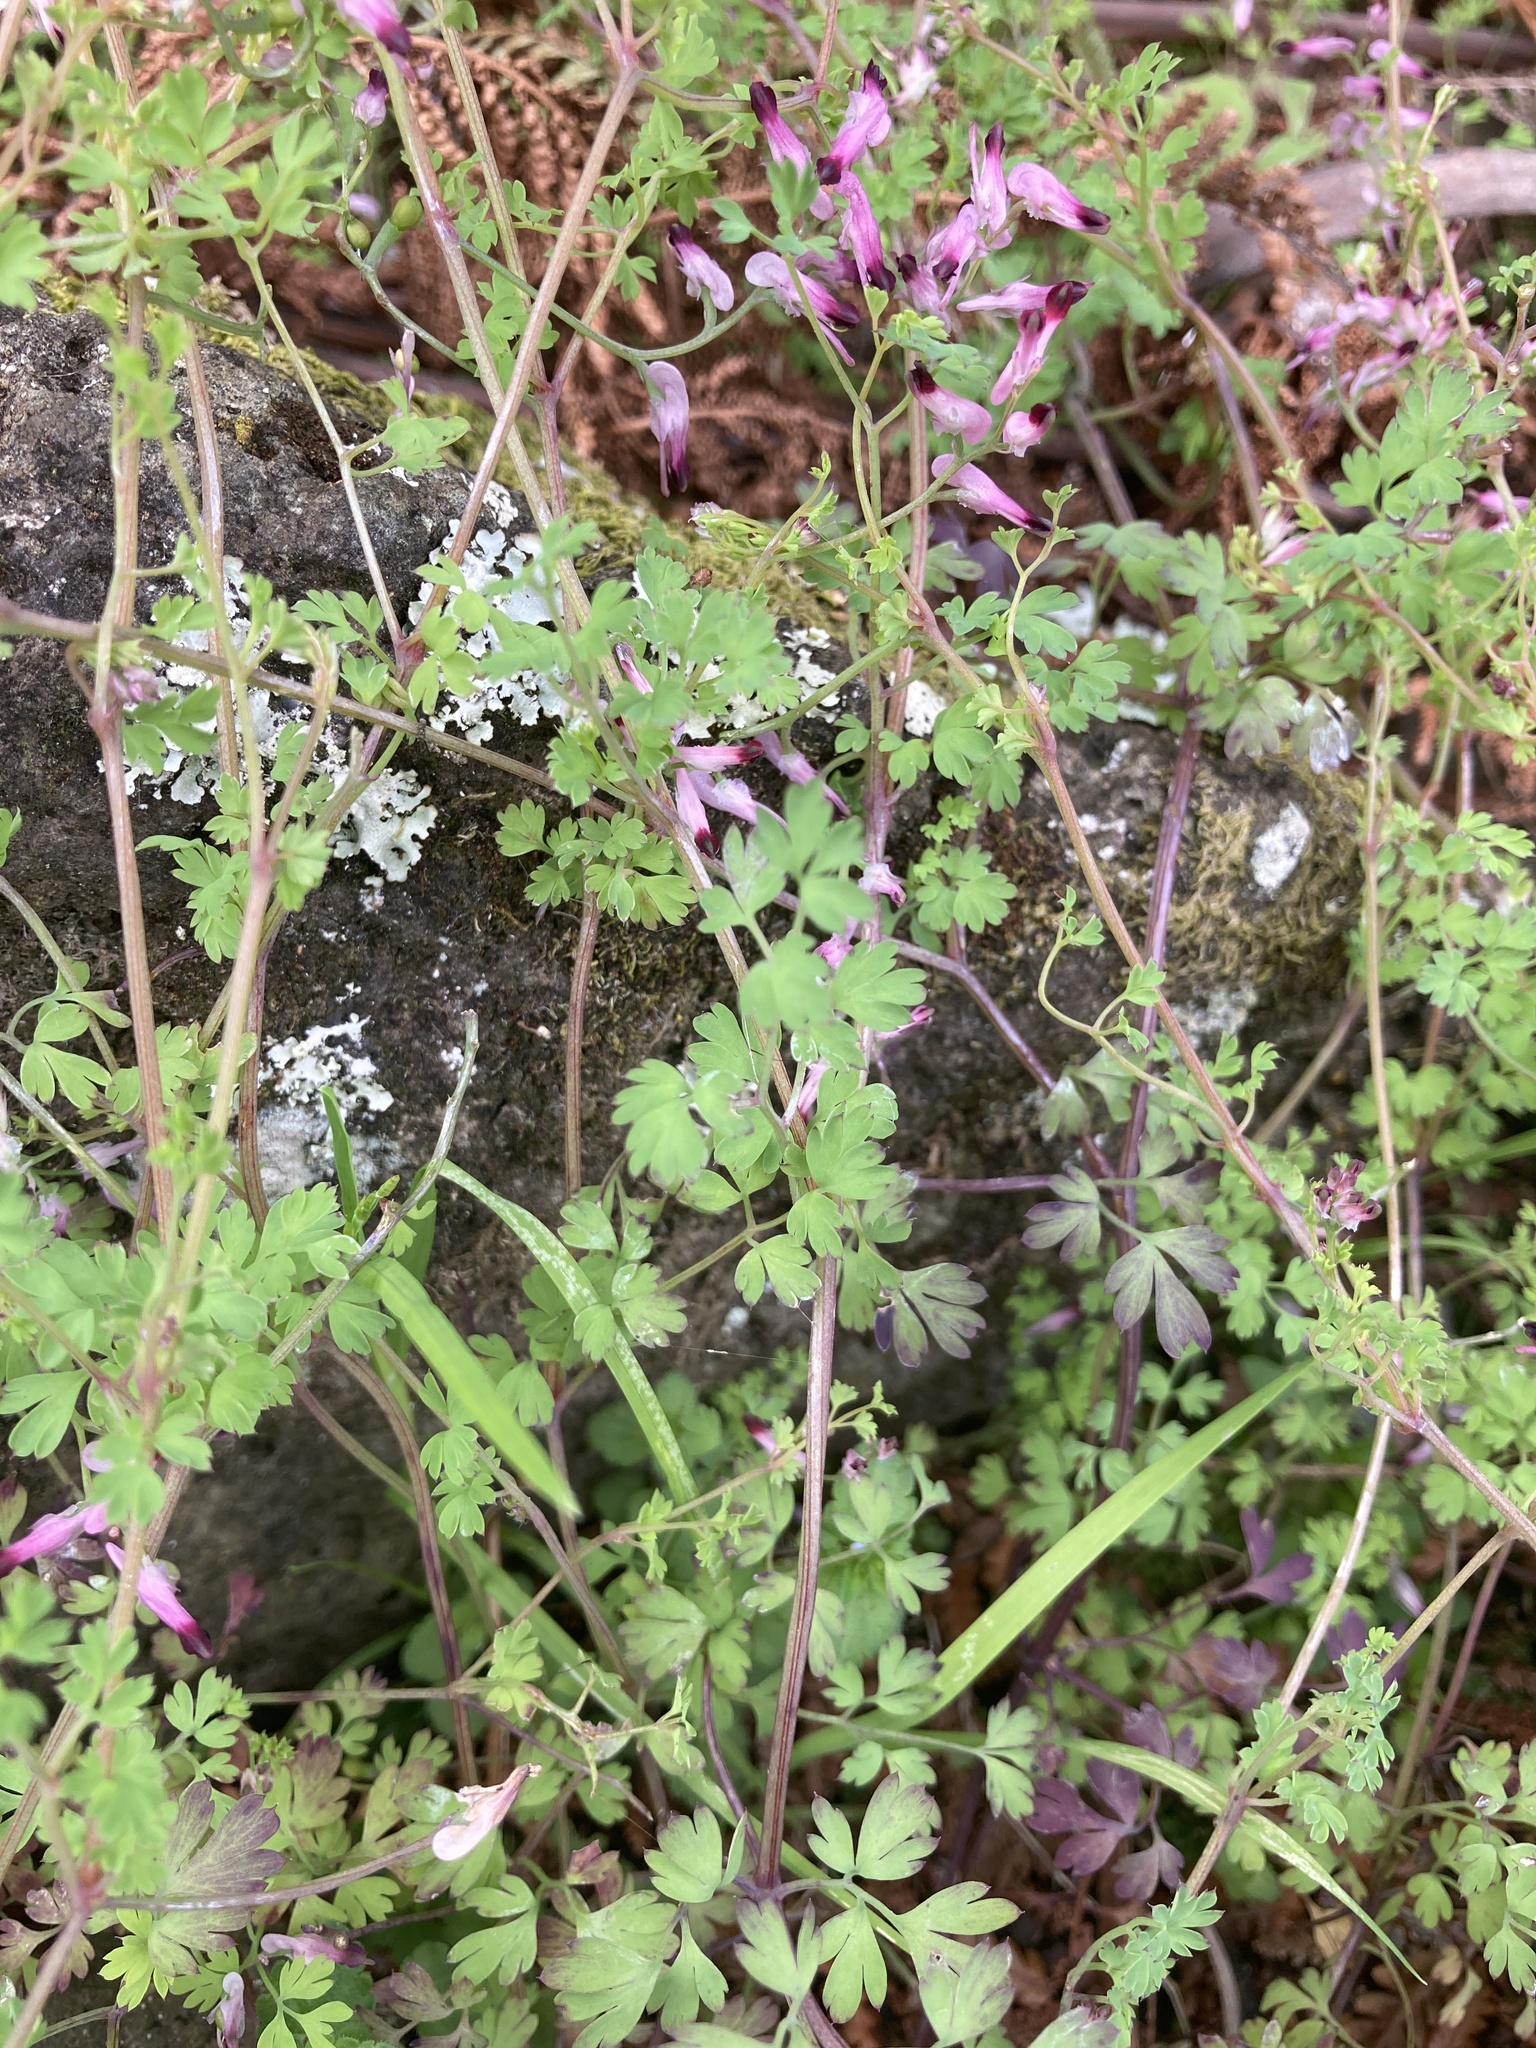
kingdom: Plantae
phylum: Tracheophyta
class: Magnoliopsida
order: Ranunculales
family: Papaveraceae
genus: Fumaria
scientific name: Fumaria muralis
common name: Common ramping-fumitory
